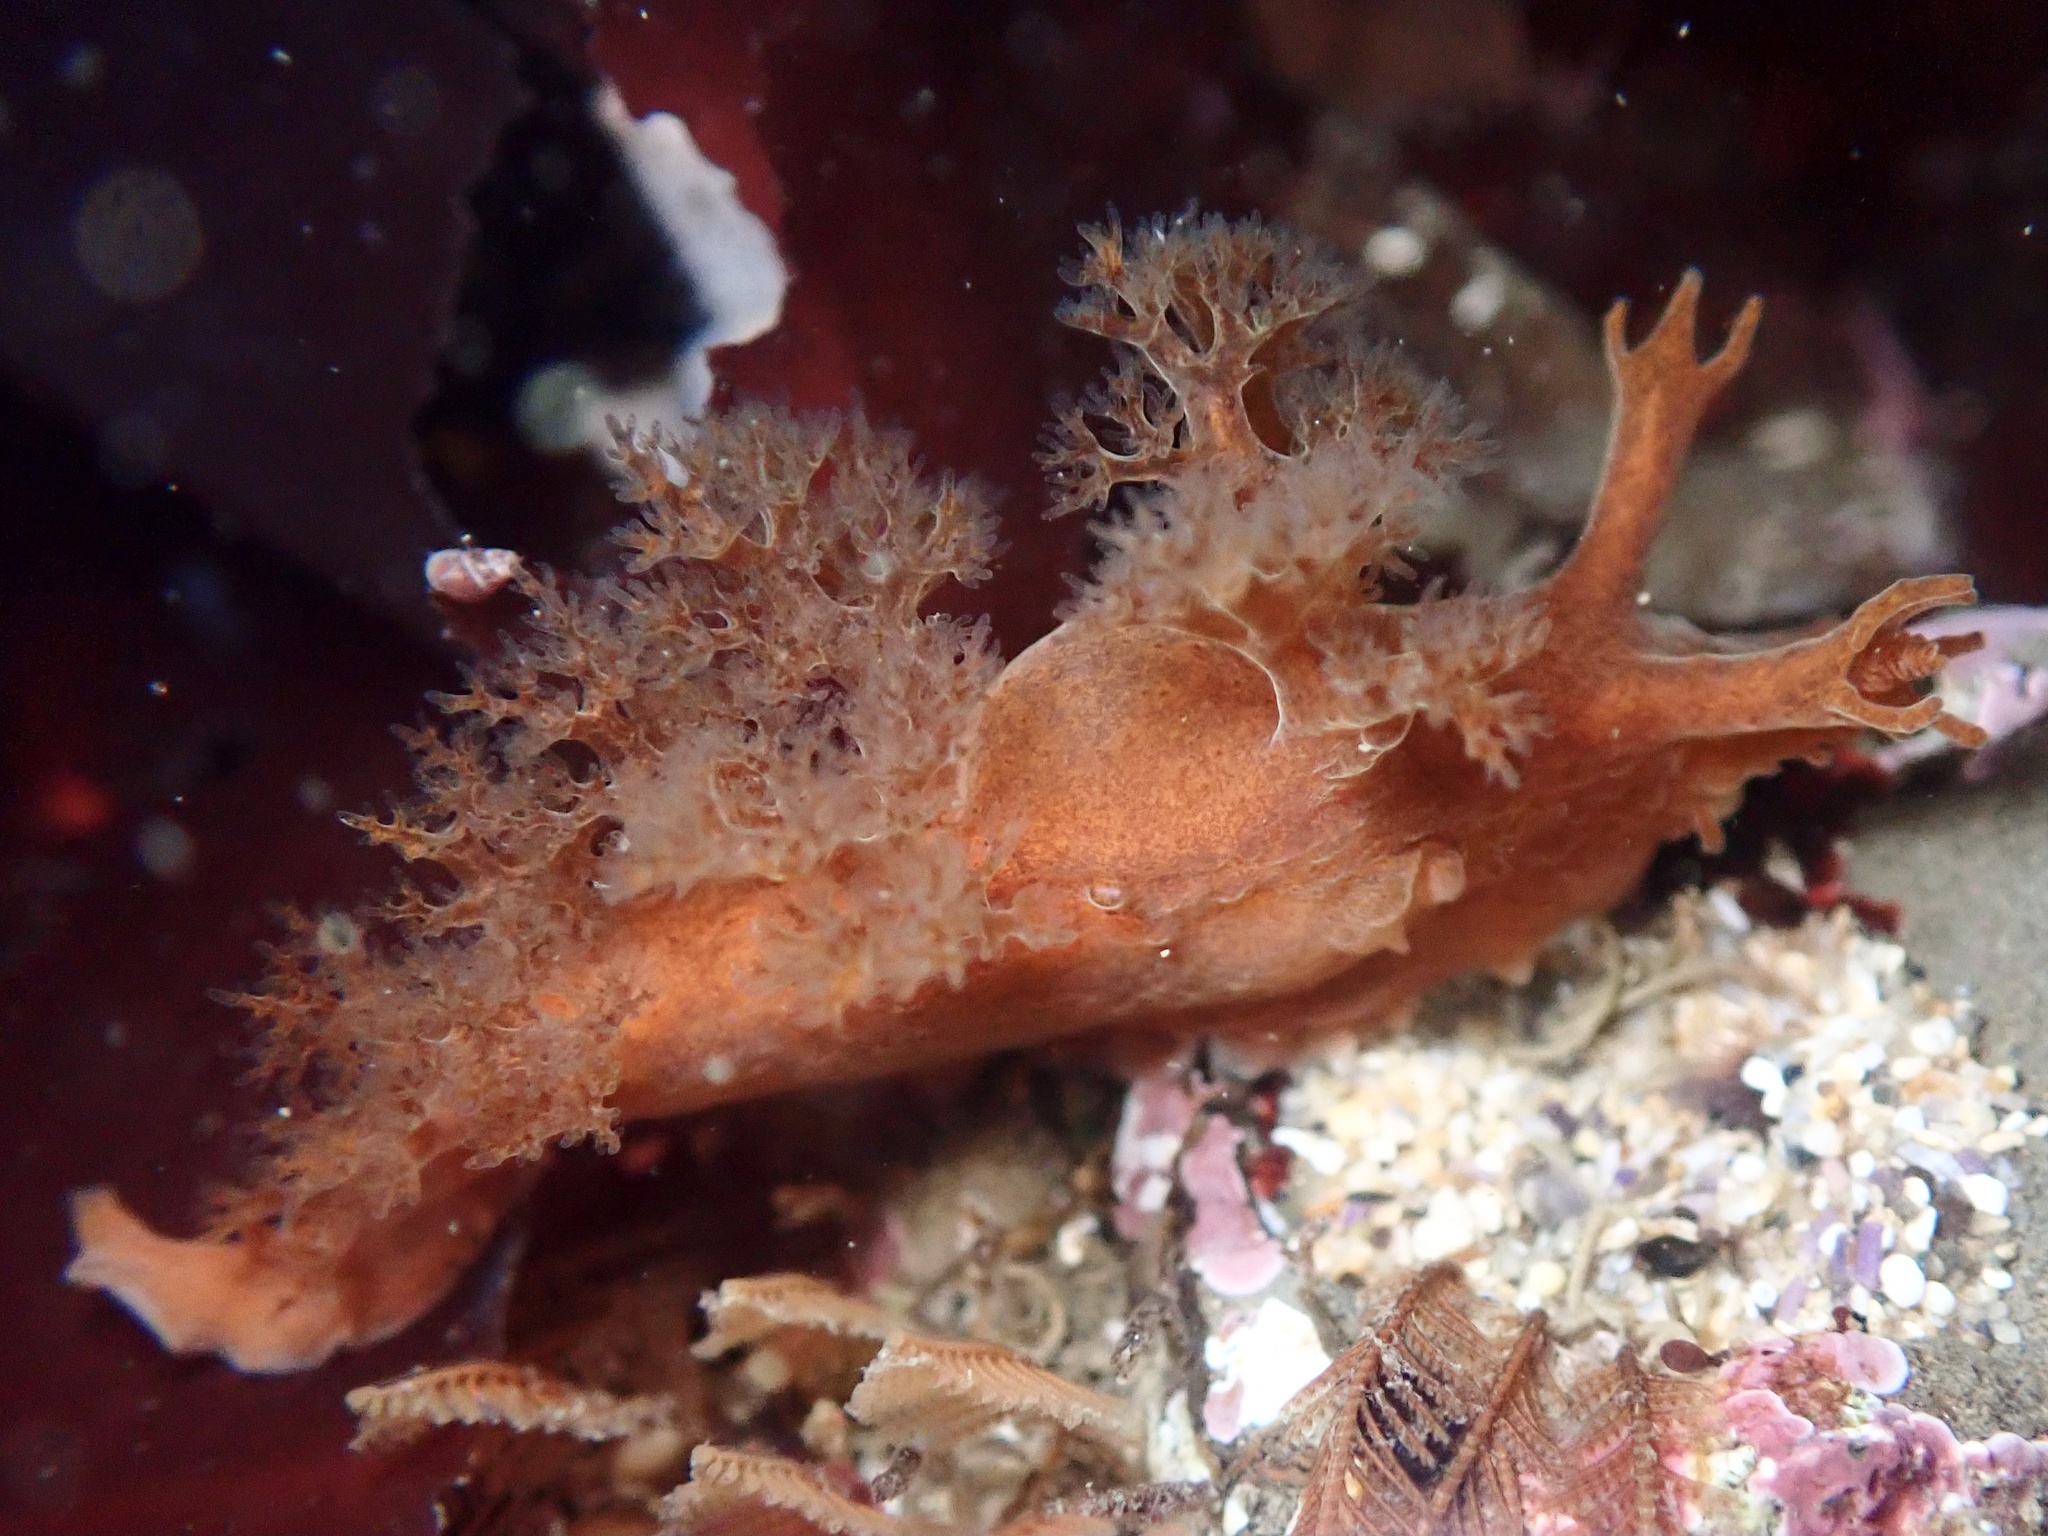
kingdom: Animalia
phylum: Mollusca
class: Gastropoda
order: Nudibranchia
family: Dendronotidae
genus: Dendronotus
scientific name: Dendronotus subramosus
